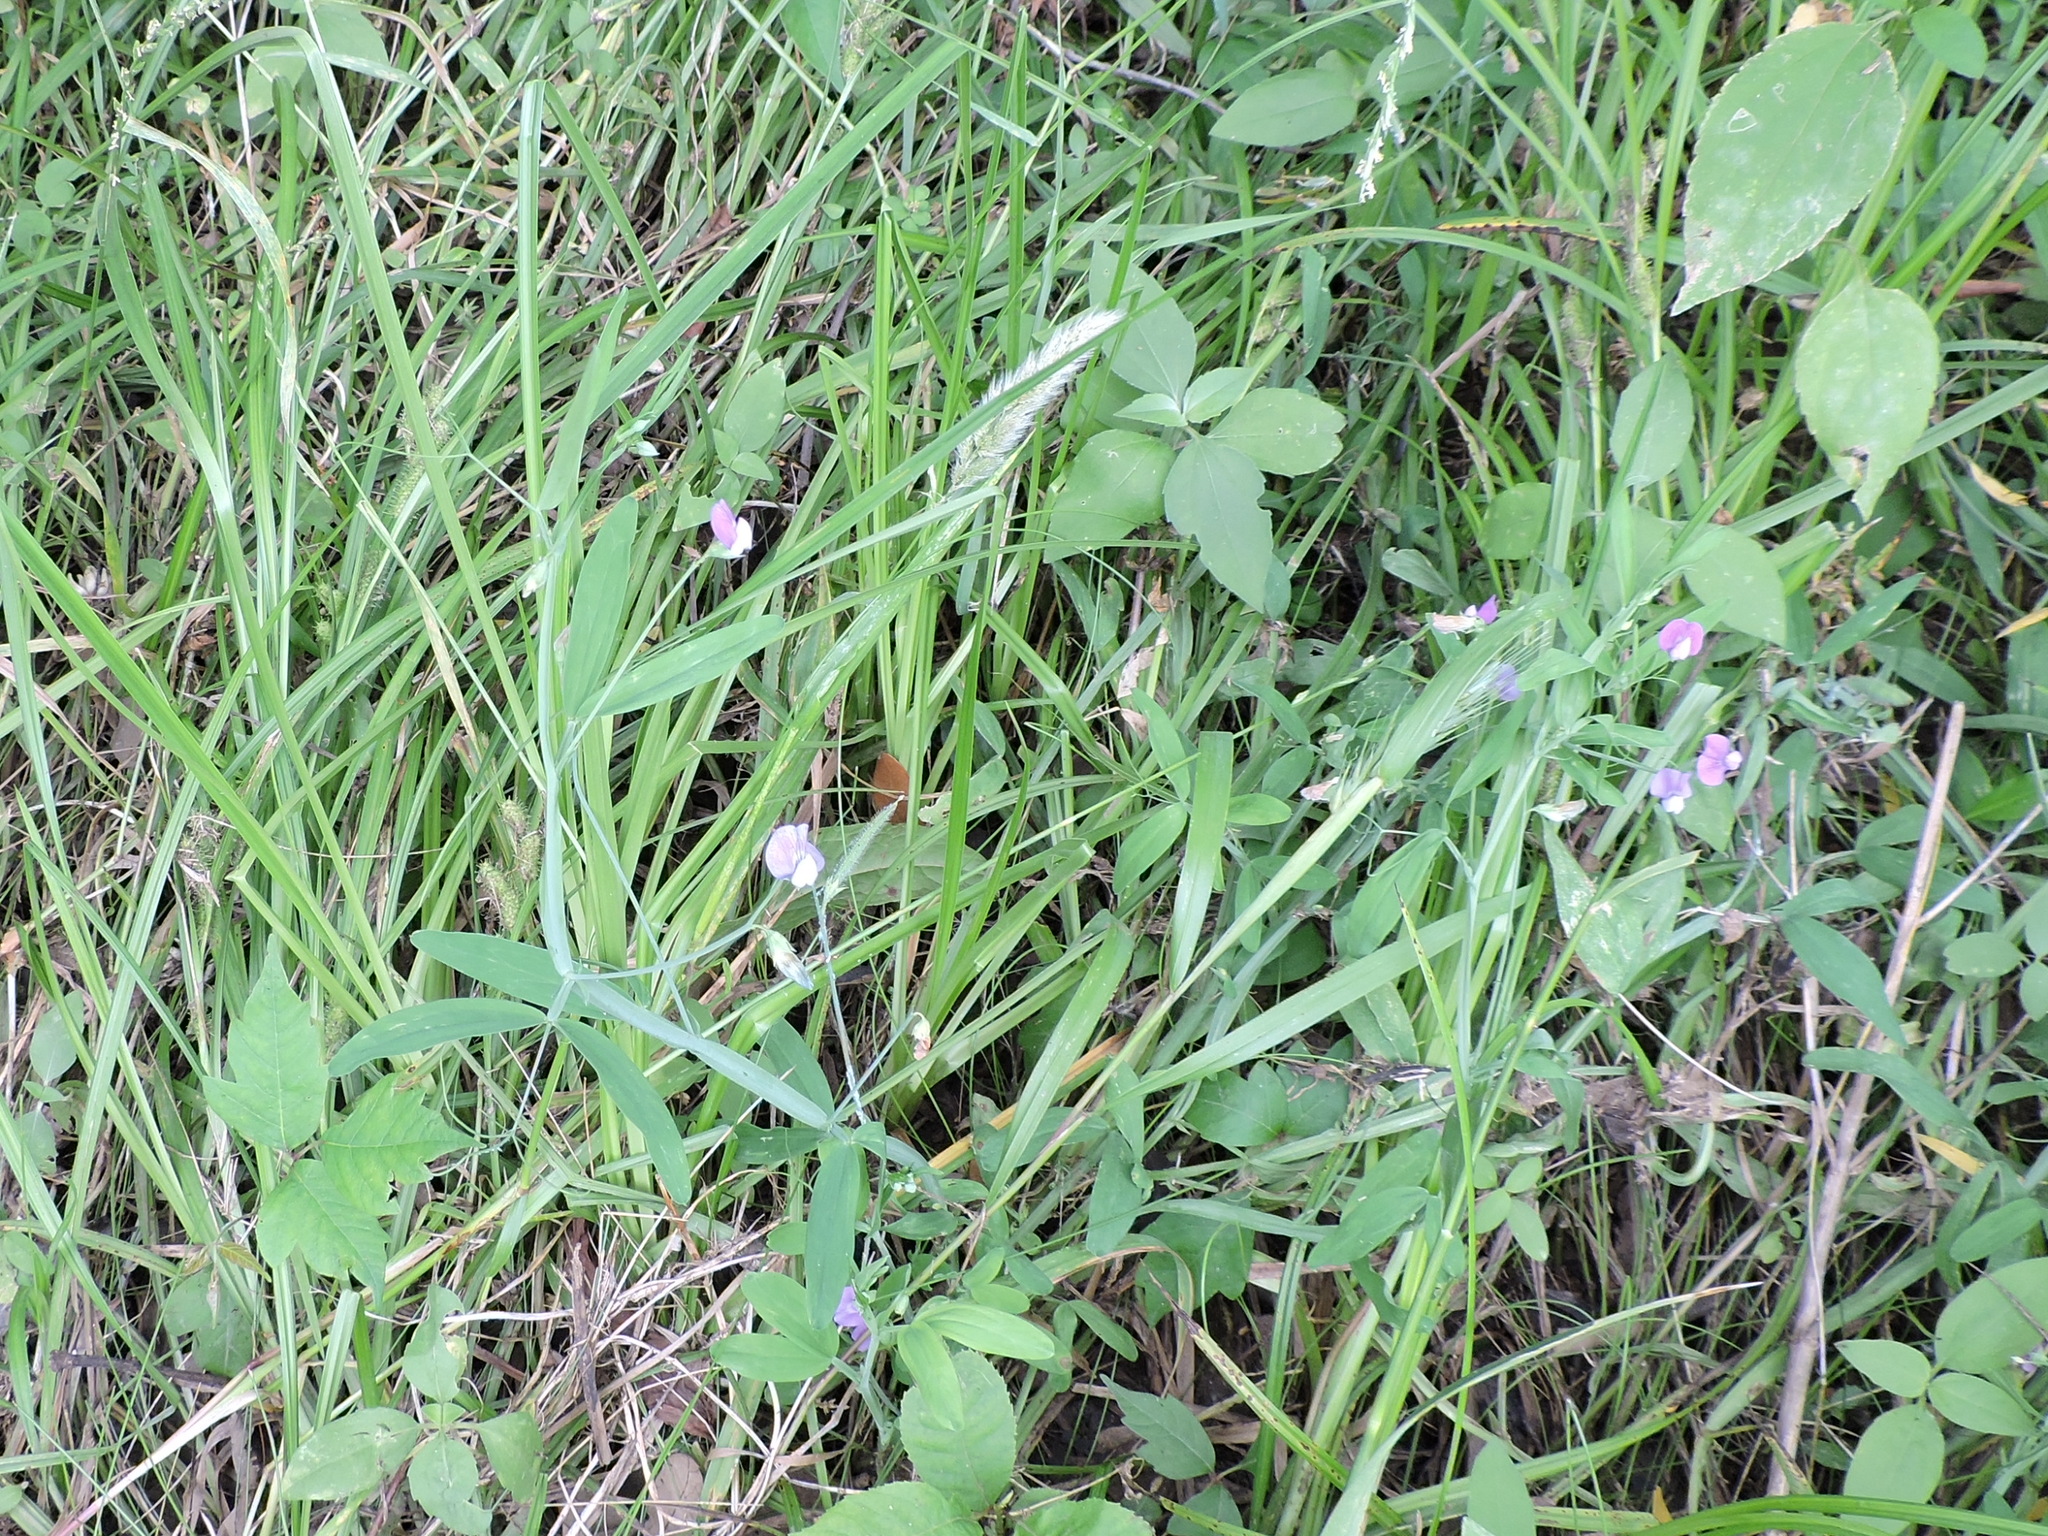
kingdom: Plantae
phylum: Tracheophyta
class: Magnoliopsida
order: Fabales
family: Fabaceae
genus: Lathyrus
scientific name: Lathyrus hirsutus
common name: Hairy vetchling
